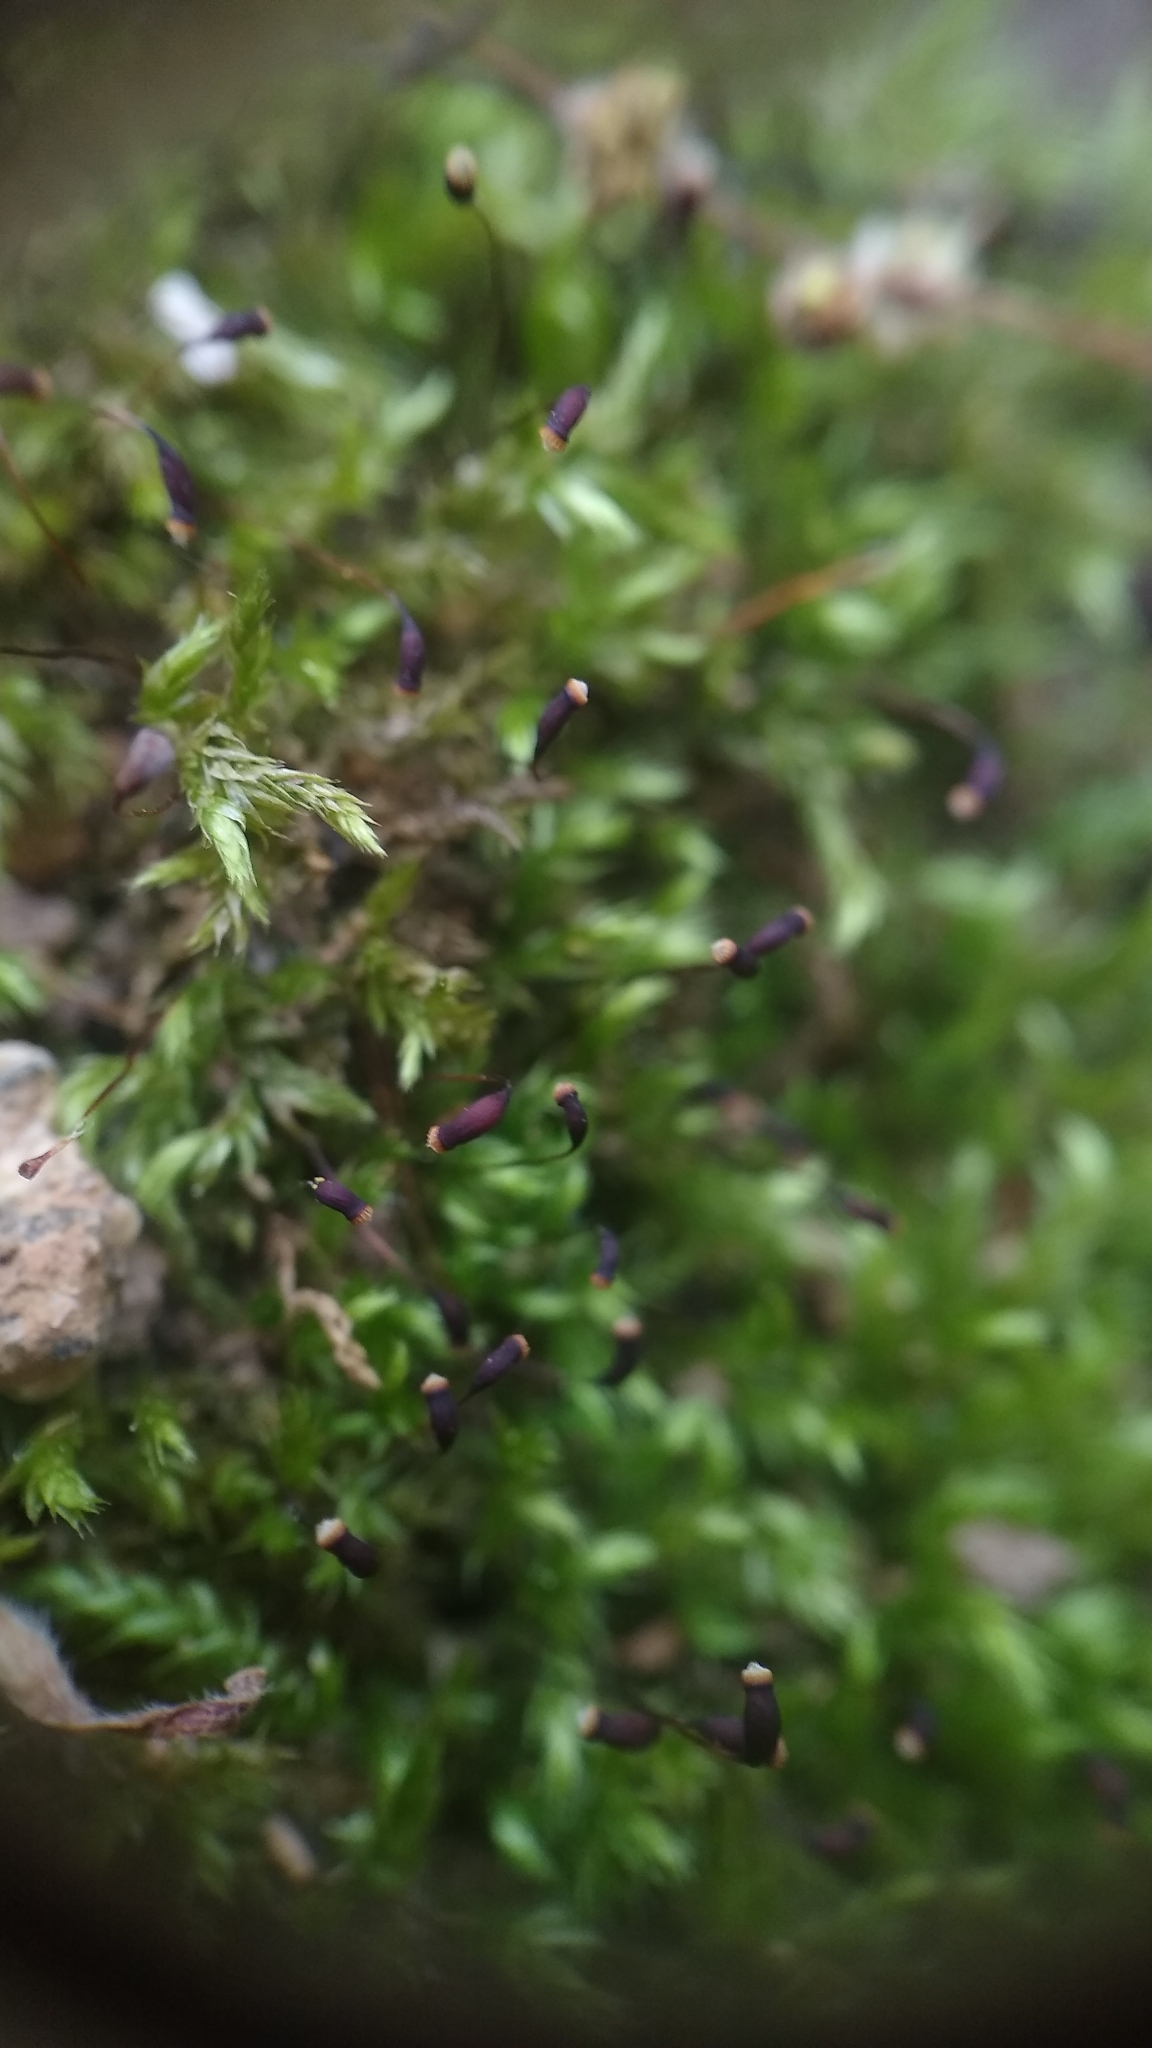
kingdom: Plantae
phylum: Bryophyta
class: Bryopsida
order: Hypnales
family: Brachytheciaceae
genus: Brachytheciastrum
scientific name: Brachytheciastrum velutinum
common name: Velvet feather-moss
